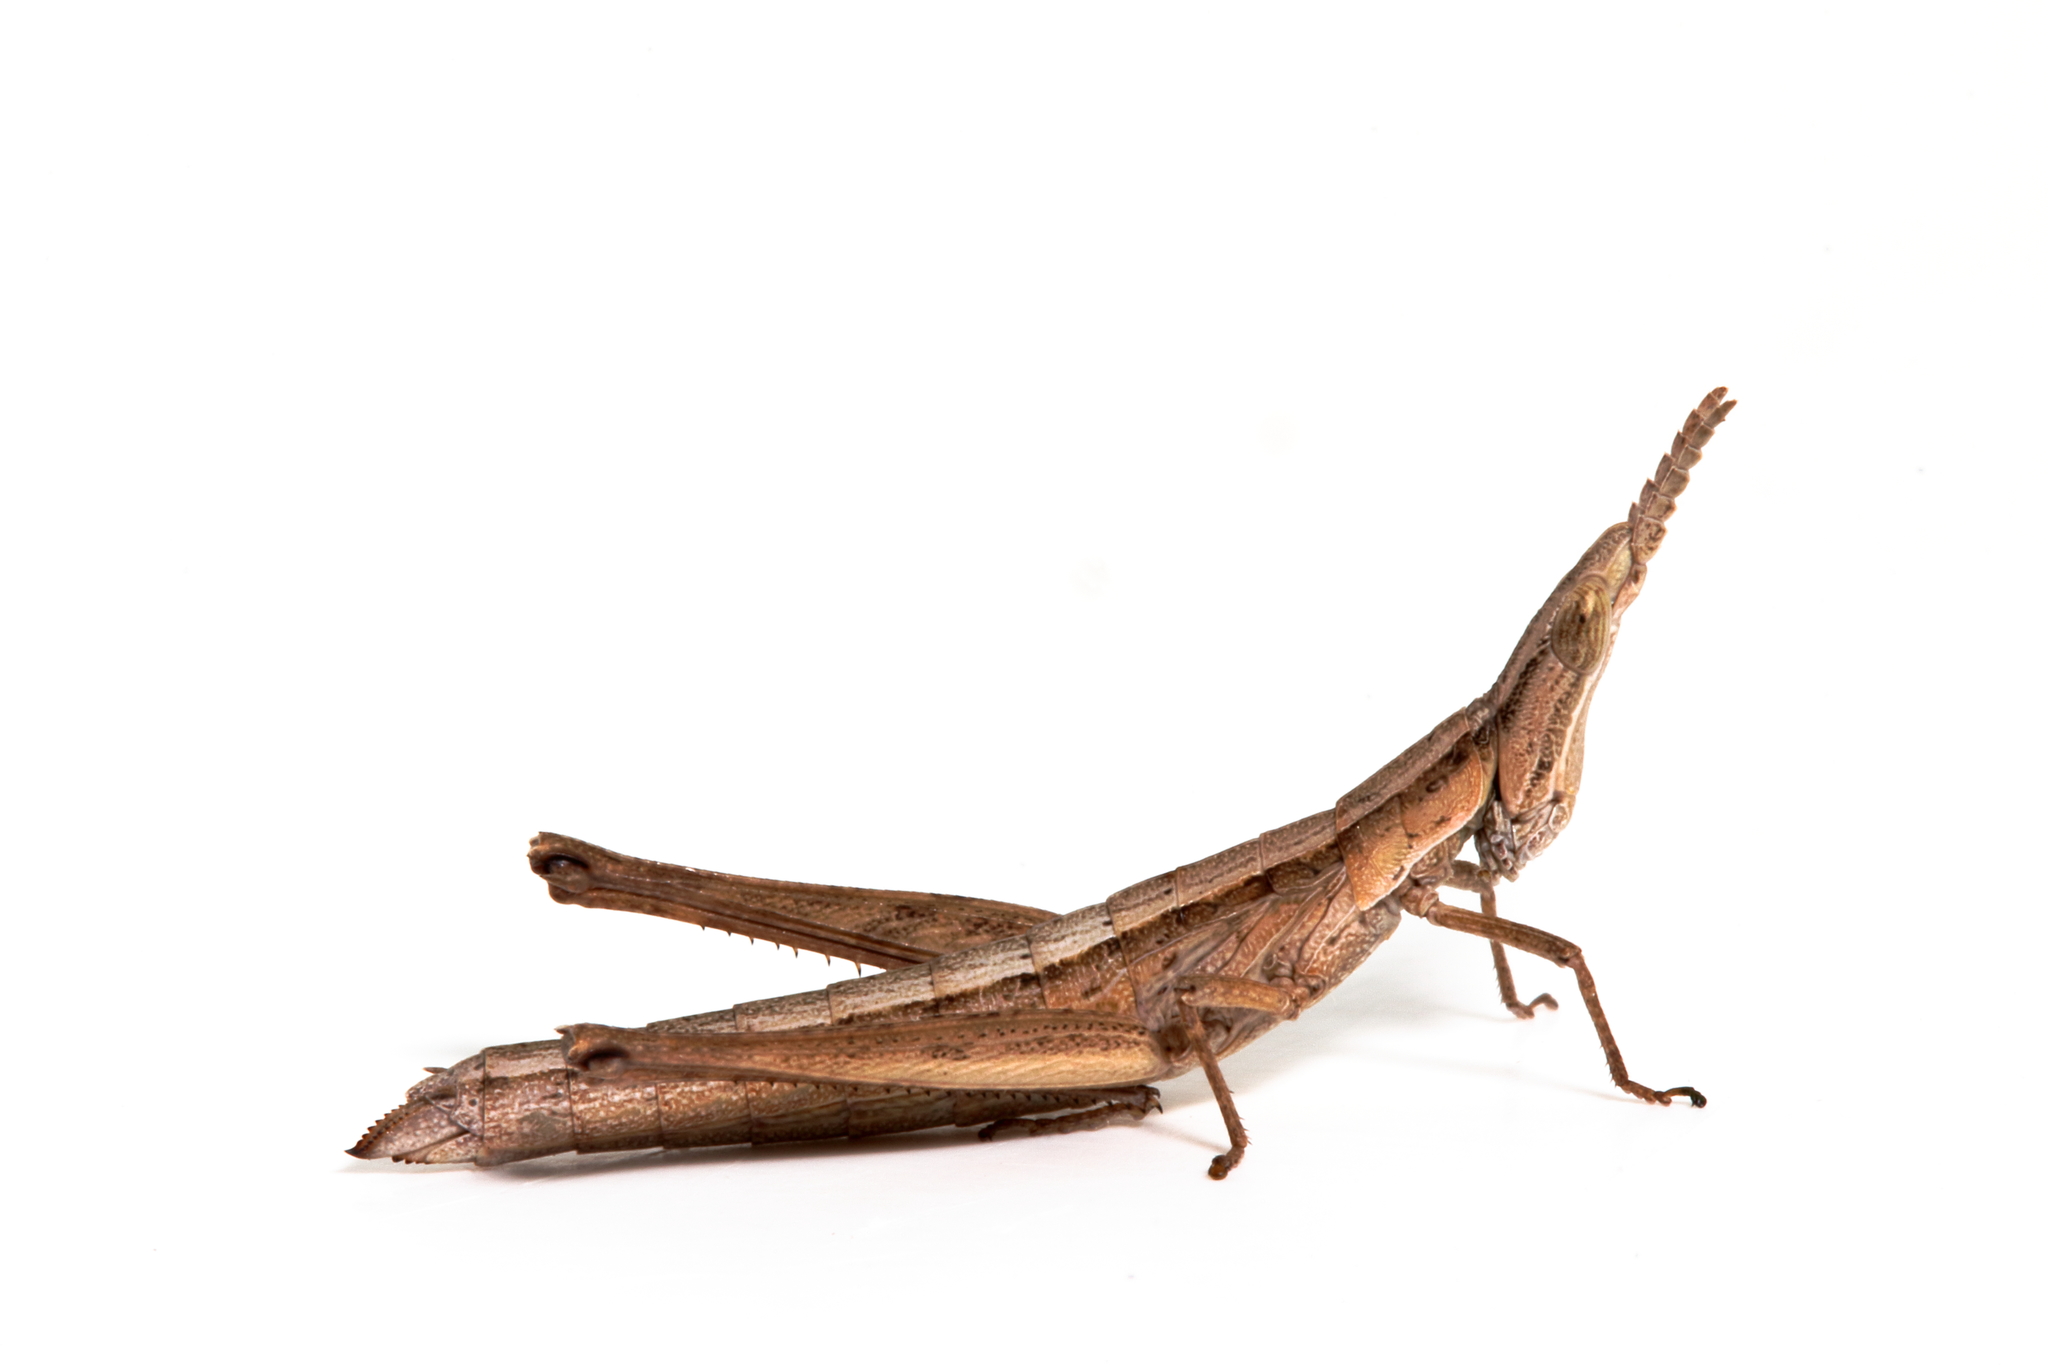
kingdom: Animalia
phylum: Arthropoda
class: Insecta
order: Orthoptera
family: Morabidae
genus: Keyacris
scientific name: Keyacris scurra
